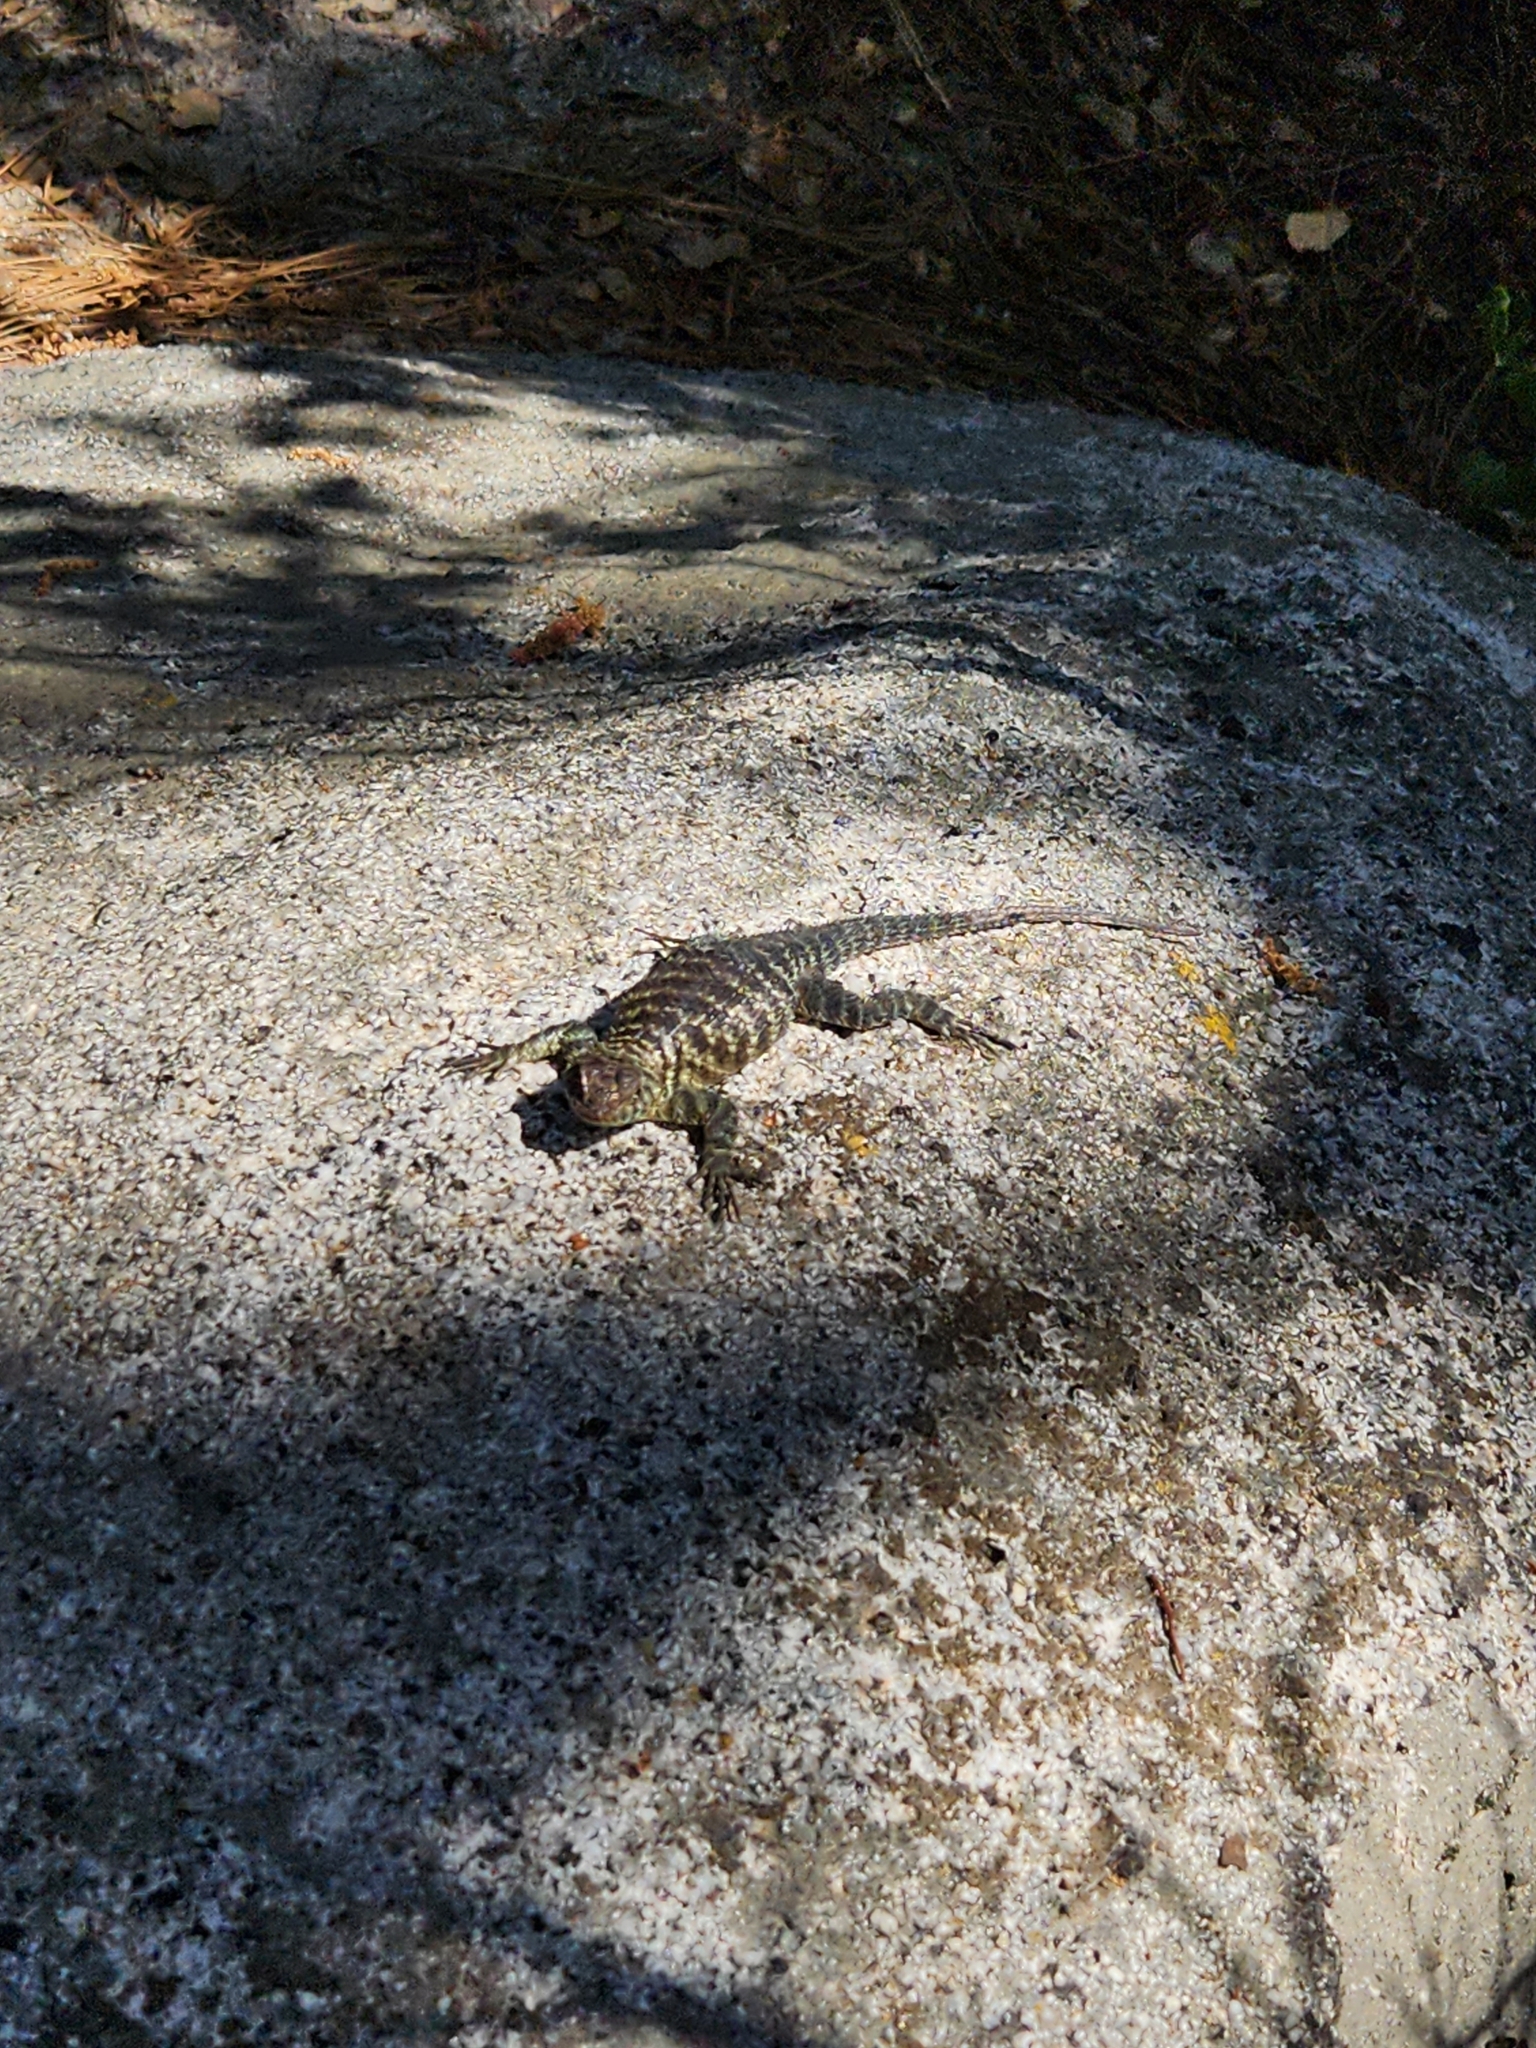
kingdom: Animalia
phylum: Chordata
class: Squamata
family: Phrynosomatidae
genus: Sceloporus
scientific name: Sceloporus orcutti
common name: Granite spiny lizard
